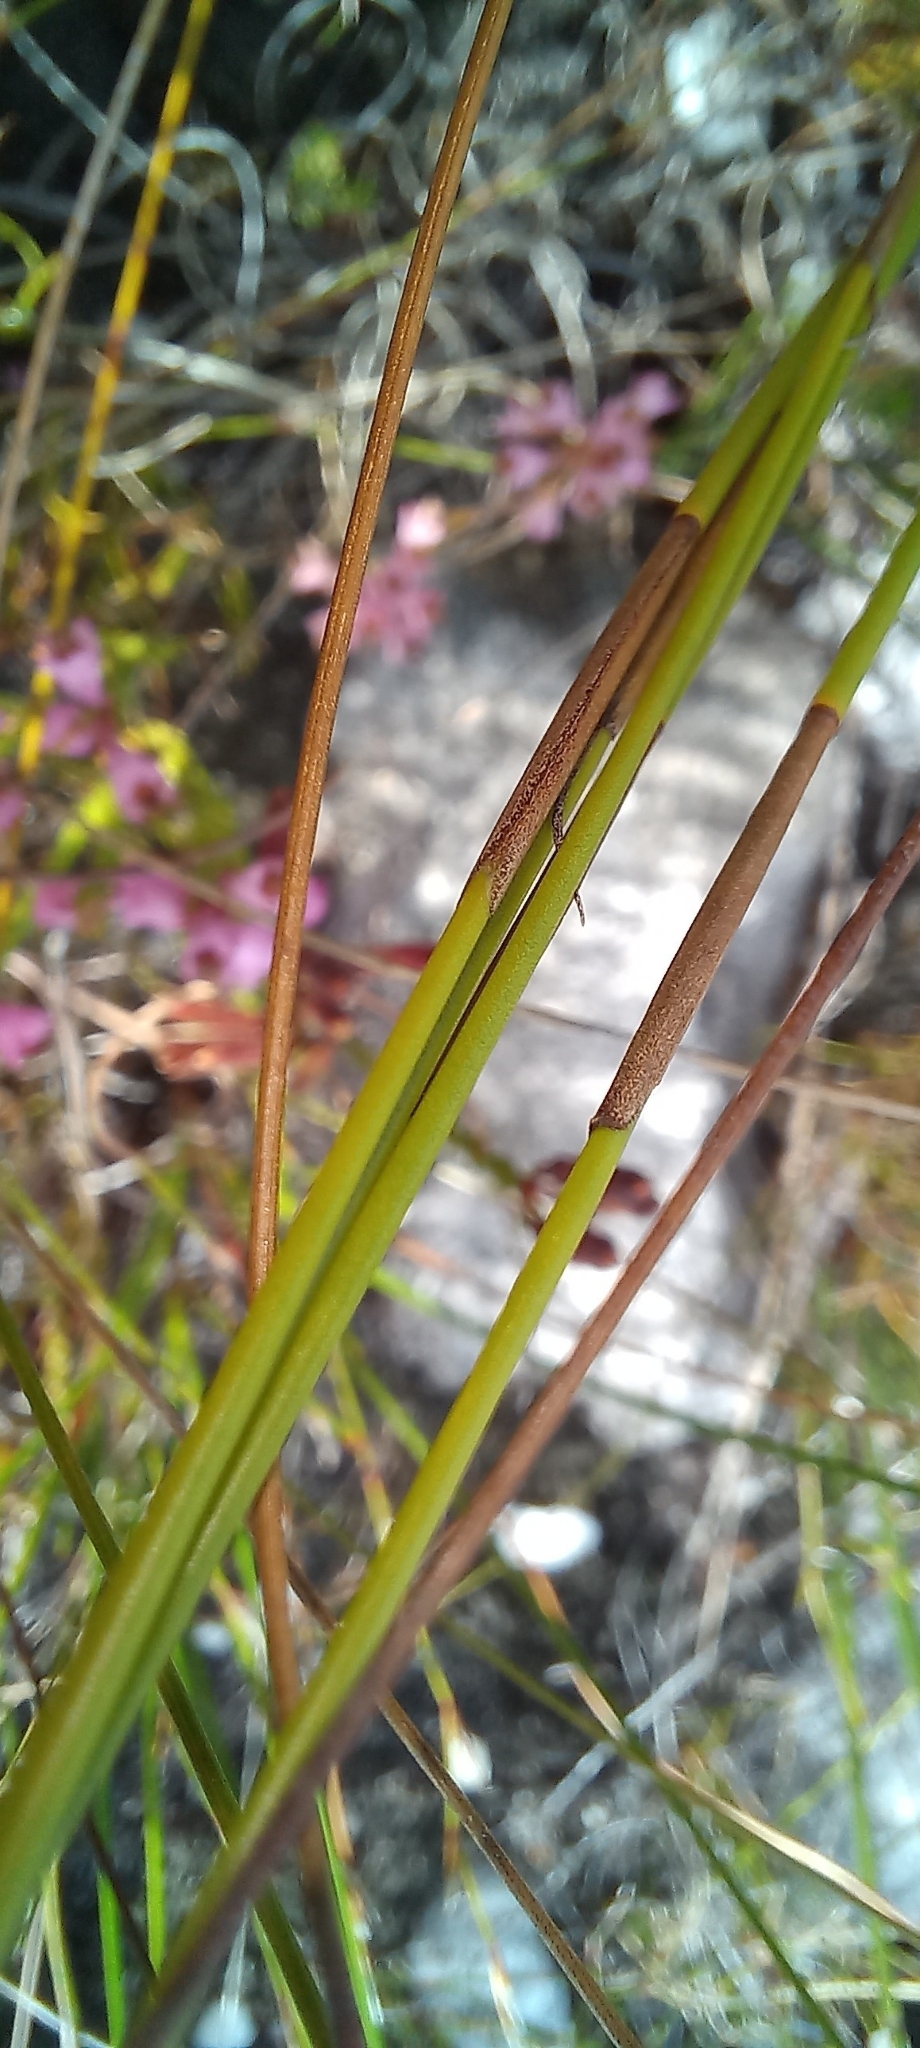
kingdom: Plantae
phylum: Tracheophyta
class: Liliopsida
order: Poales
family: Restionaceae
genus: Elegia
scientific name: Elegia ebracteata
